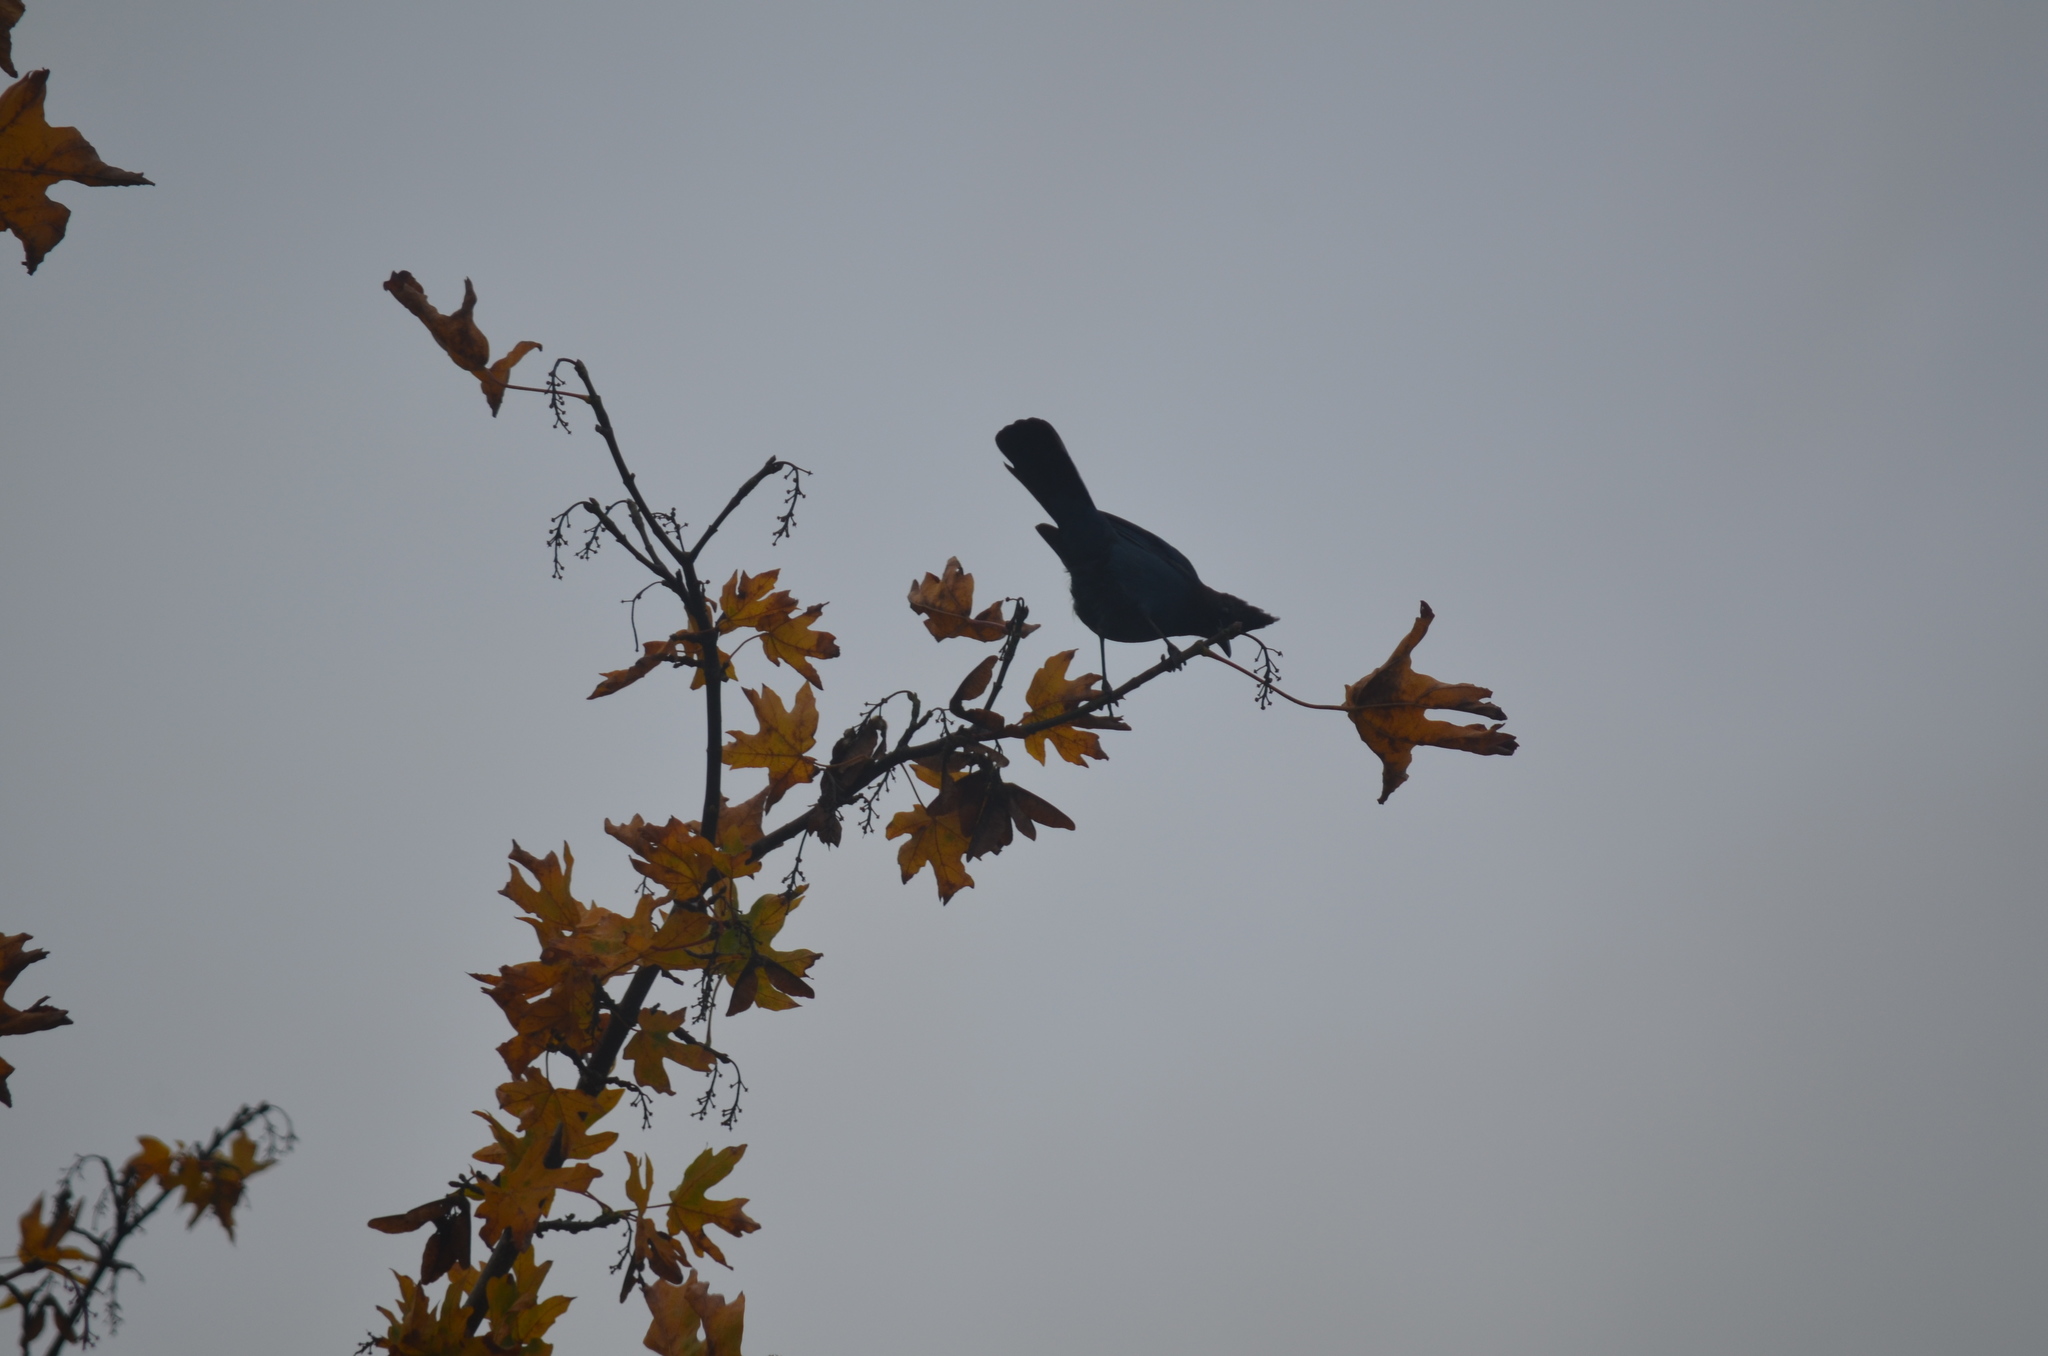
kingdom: Animalia
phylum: Chordata
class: Aves
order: Passeriformes
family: Corvidae
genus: Cyanocitta
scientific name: Cyanocitta stelleri
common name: Steller's jay
